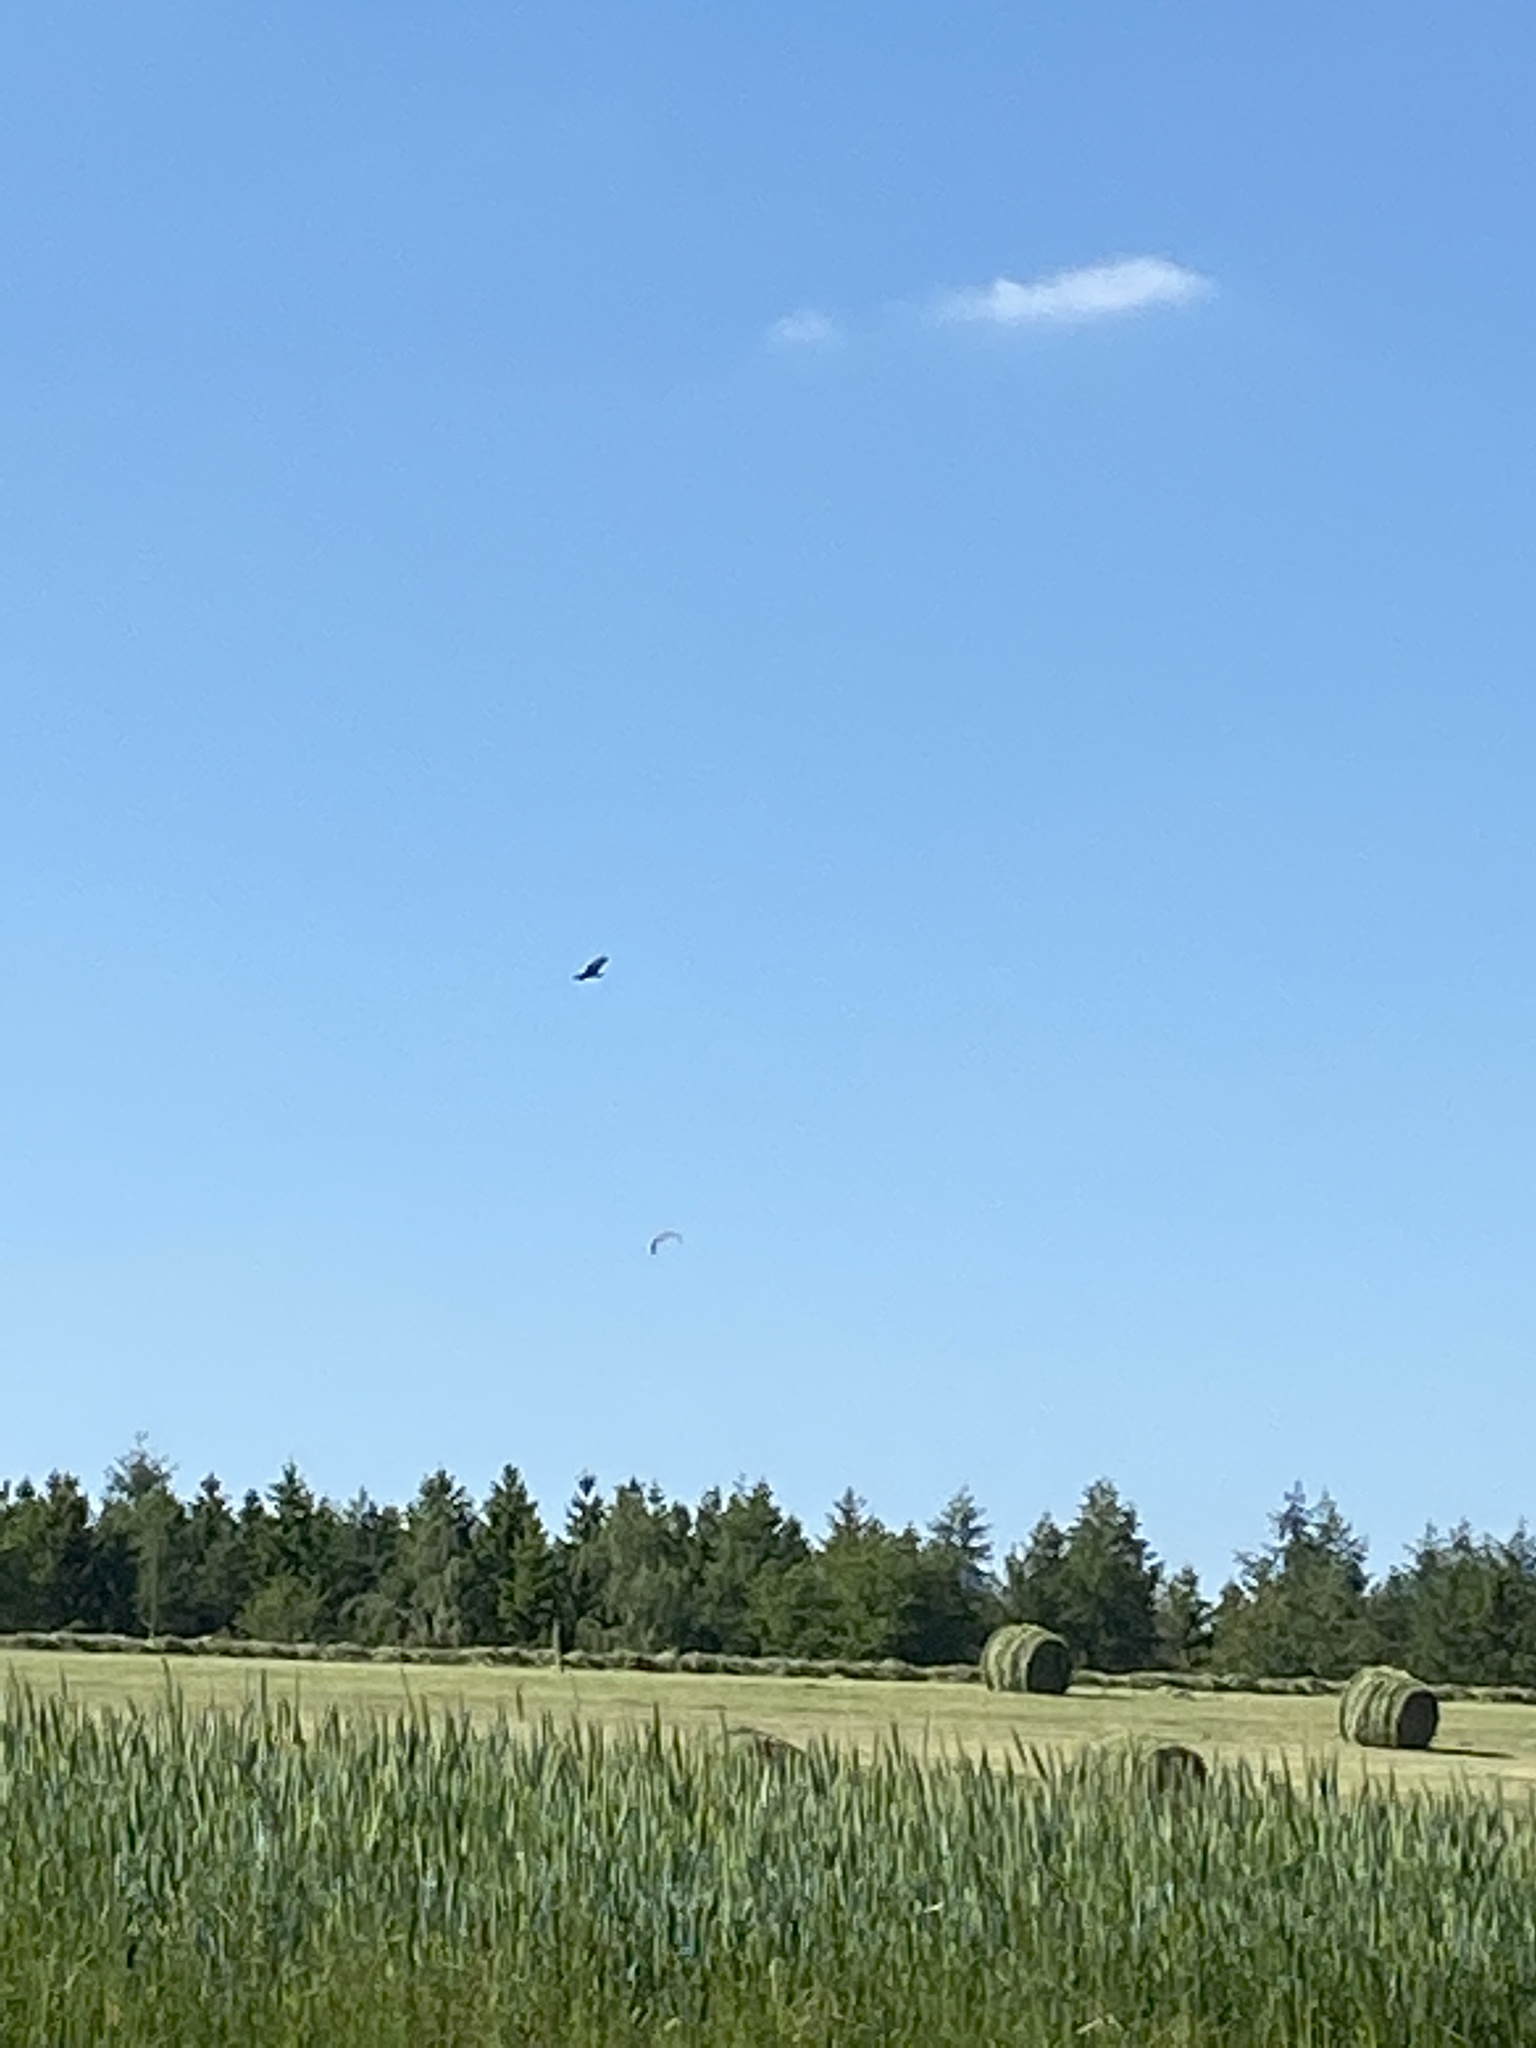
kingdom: Animalia
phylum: Chordata
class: Aves
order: Accipitriformes
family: Accipitridae
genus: Milvus
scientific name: Milvus milvus
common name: Red kite
